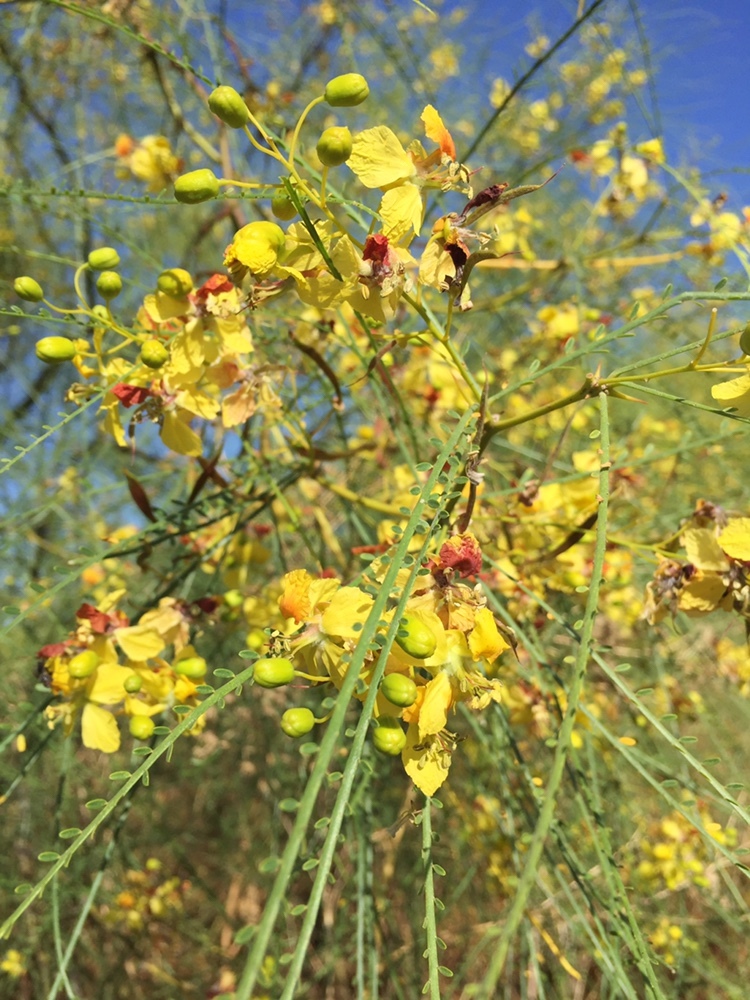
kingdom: Plantae
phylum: Tracheophyta
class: Magnoliopsida
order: Fabales
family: Fabaceae
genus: Parkinsonia
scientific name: Parkinsonia aculeata
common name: Jerusalem thorn
